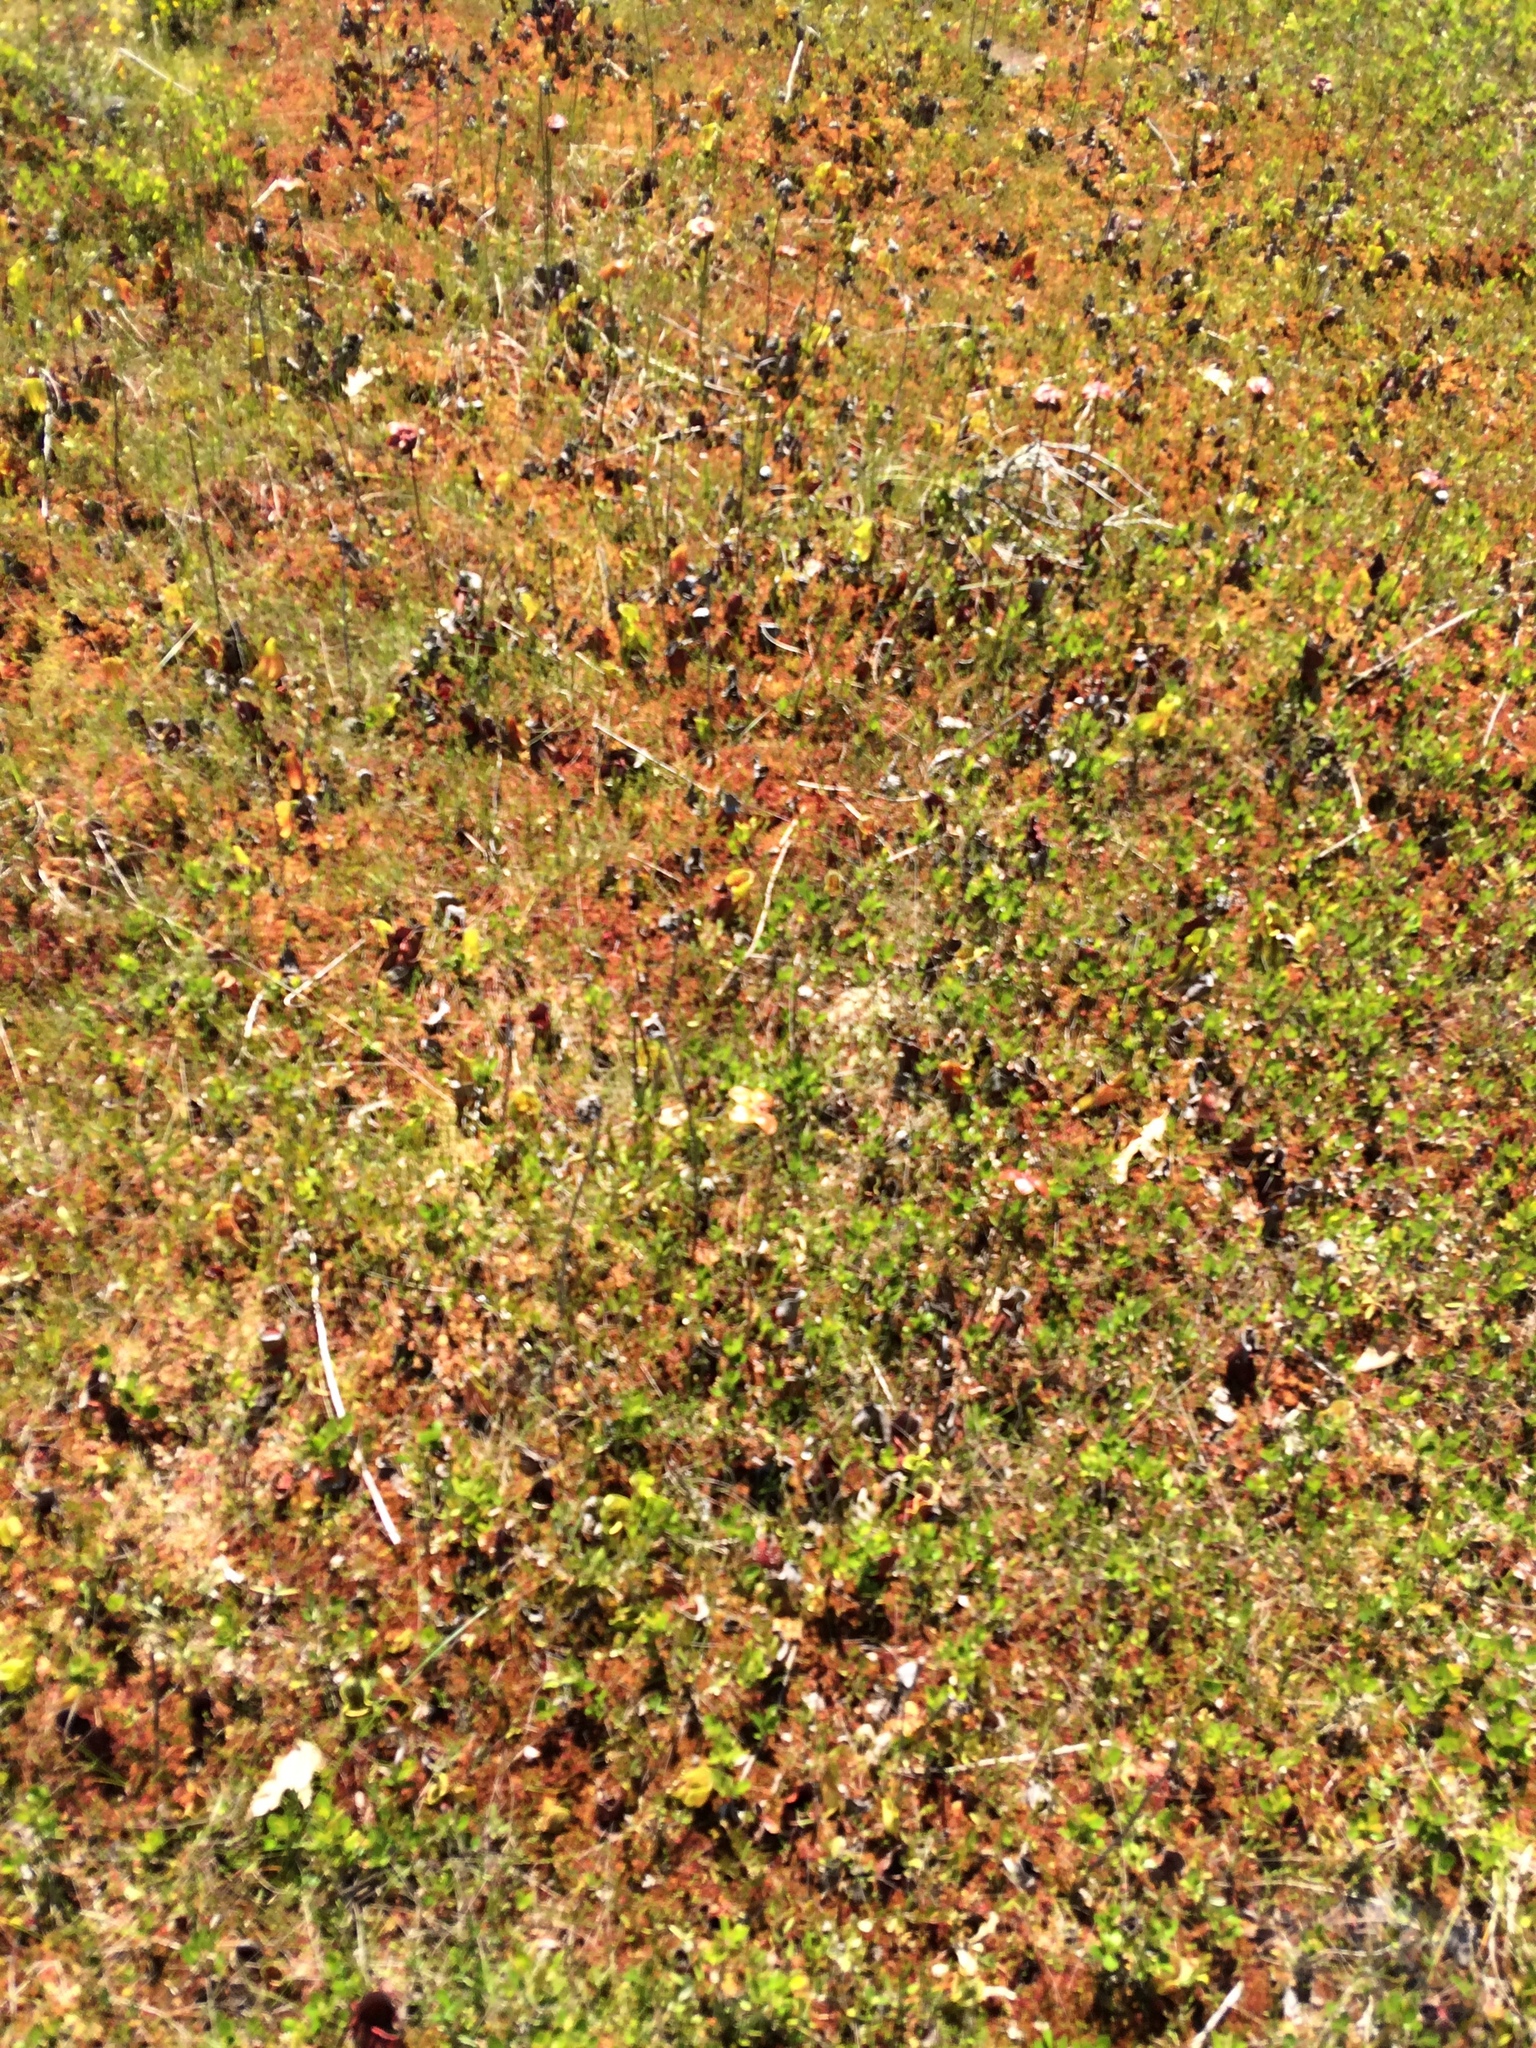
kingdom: Plantae
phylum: Tracheophyta
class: Magnoliopsida
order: Ericales
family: Sarraceniaceae
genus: Sarracenia
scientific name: Sarracenia purpurea
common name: Pitcherplant
